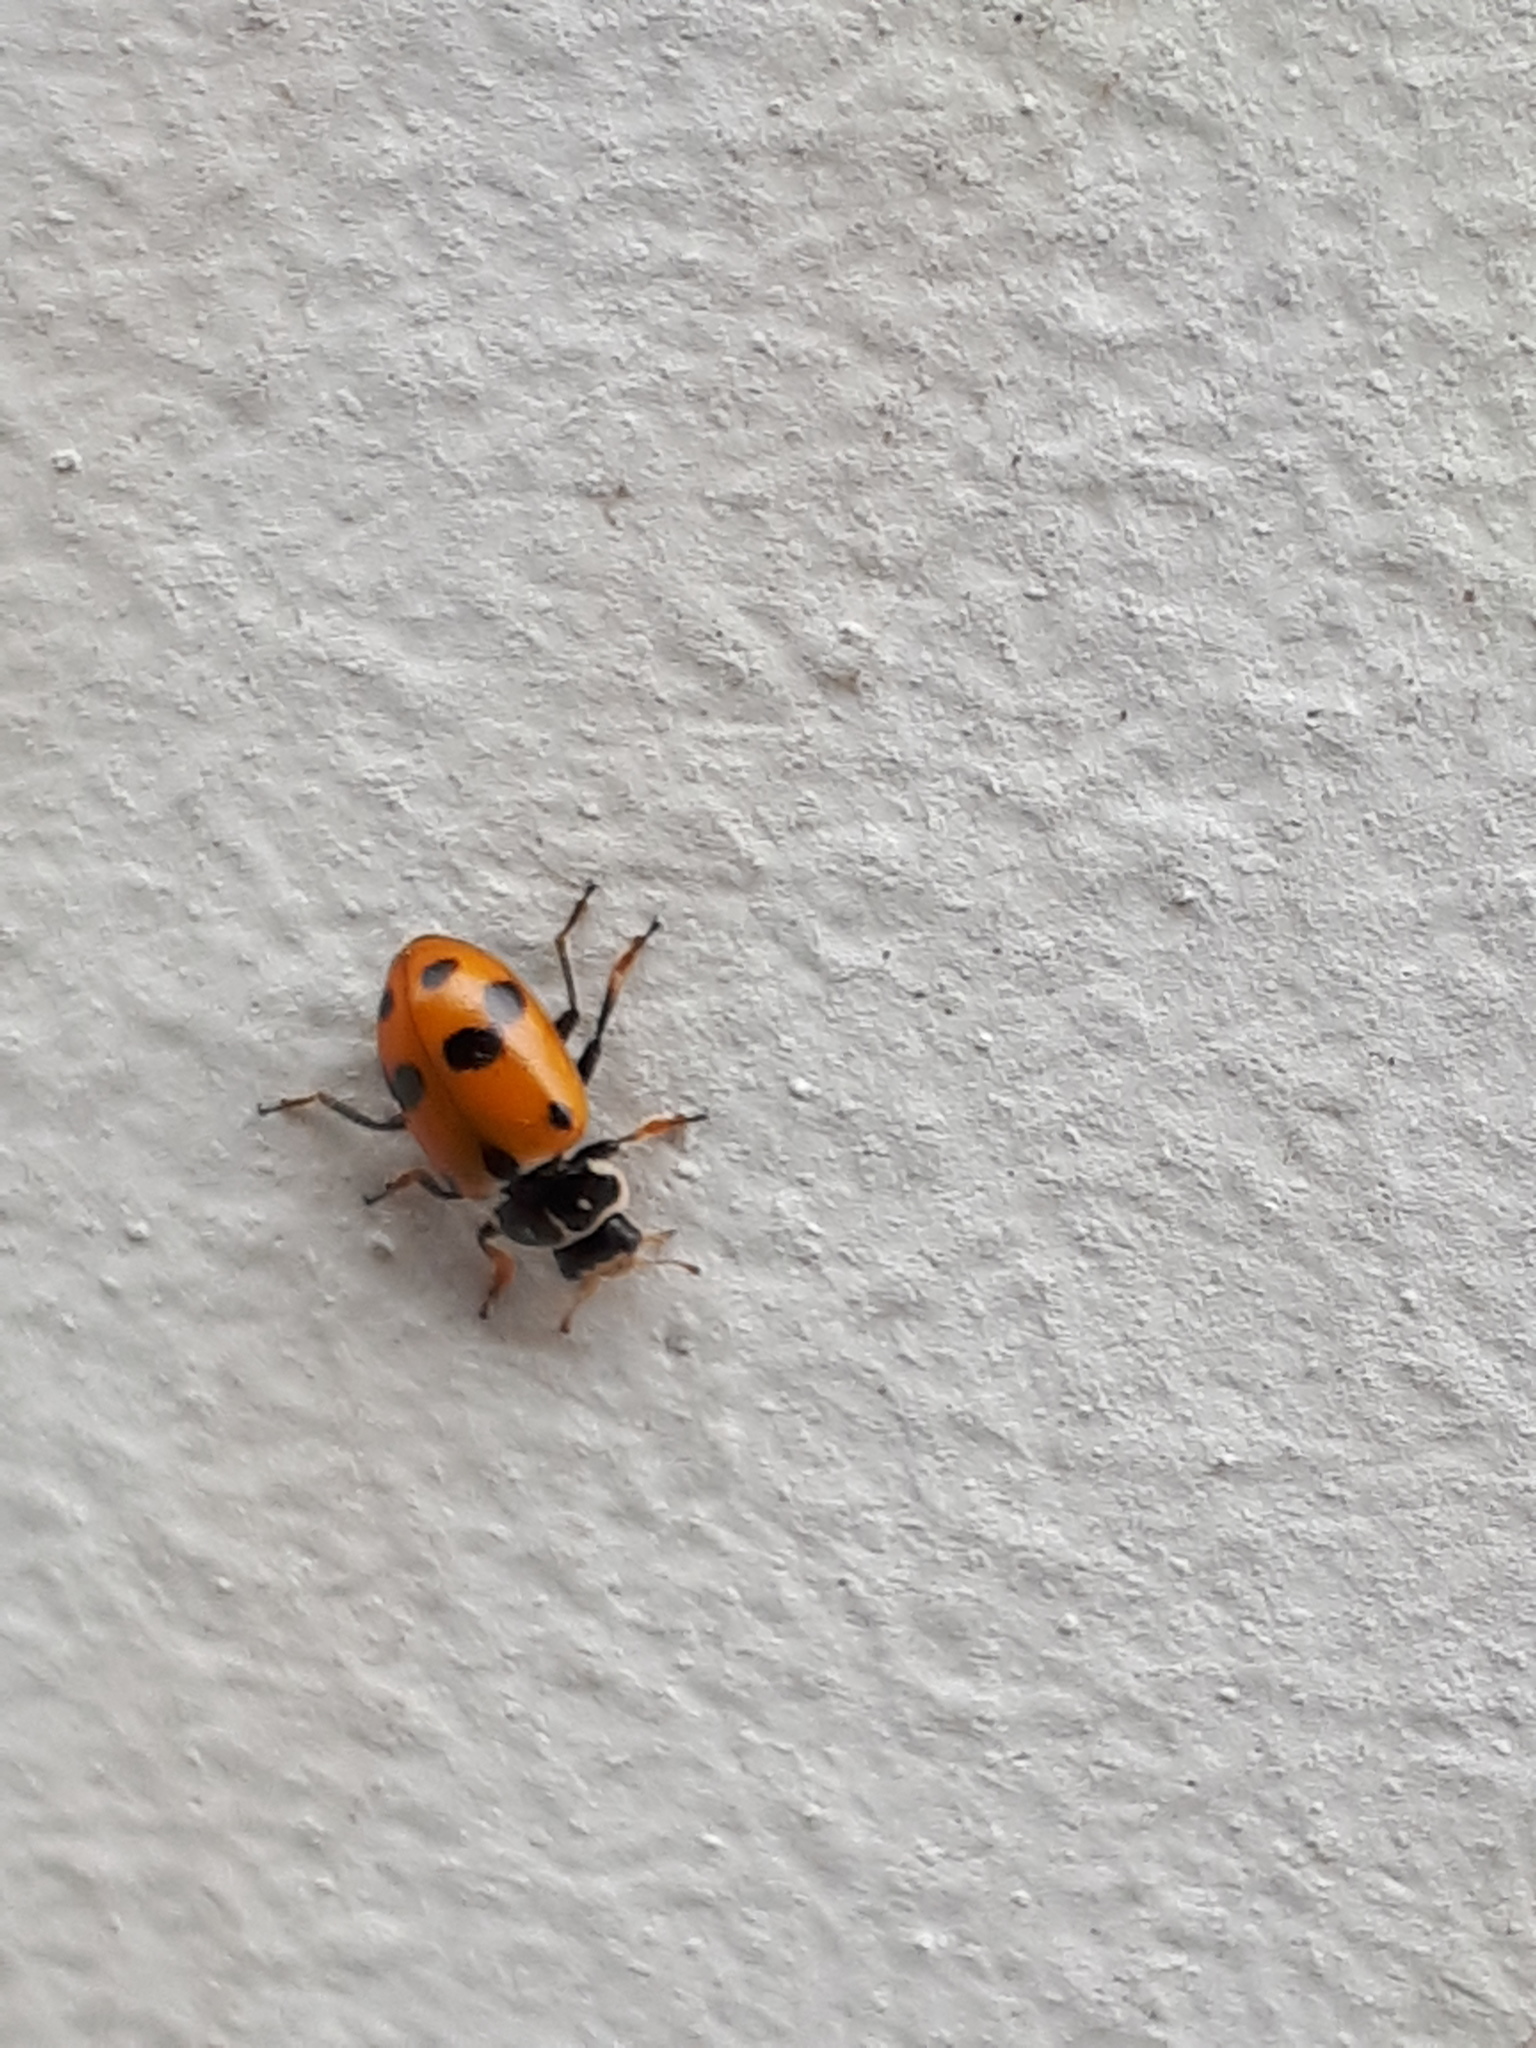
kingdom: Animalia
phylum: Arthropoda
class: Insecta
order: Coleoptera
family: Coccinellidae
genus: Hippodamia
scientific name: Hippodamia variegata
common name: Ladybird beetle
